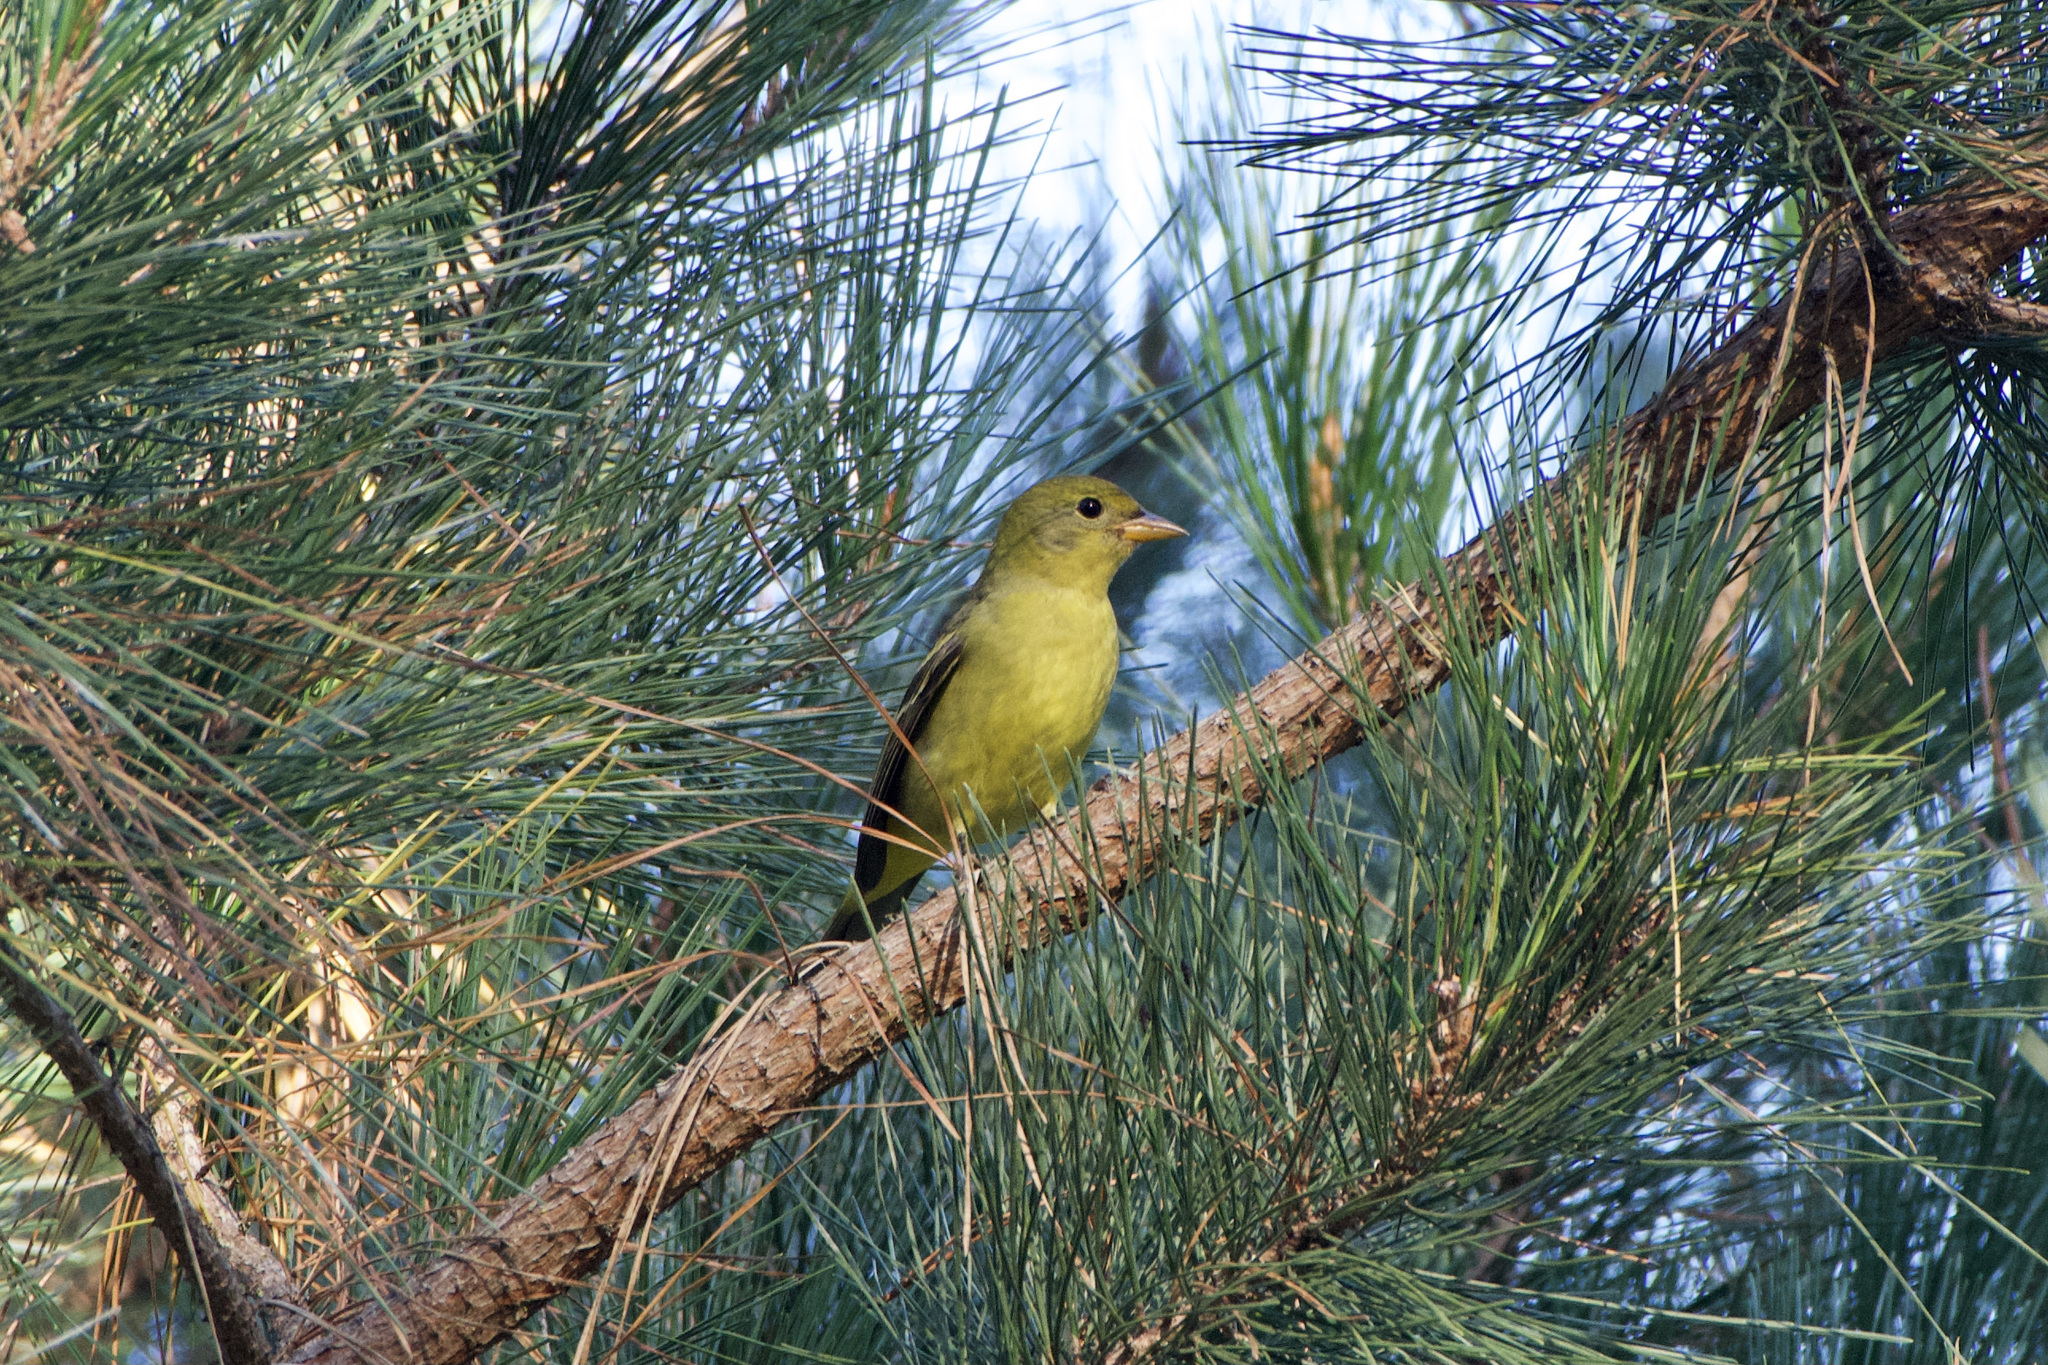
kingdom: Animalia
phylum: Chordata
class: Aves
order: Passeriformes
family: Cardinalidae
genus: Piranga
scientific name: Piranga ludoviciana
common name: Western tanager
